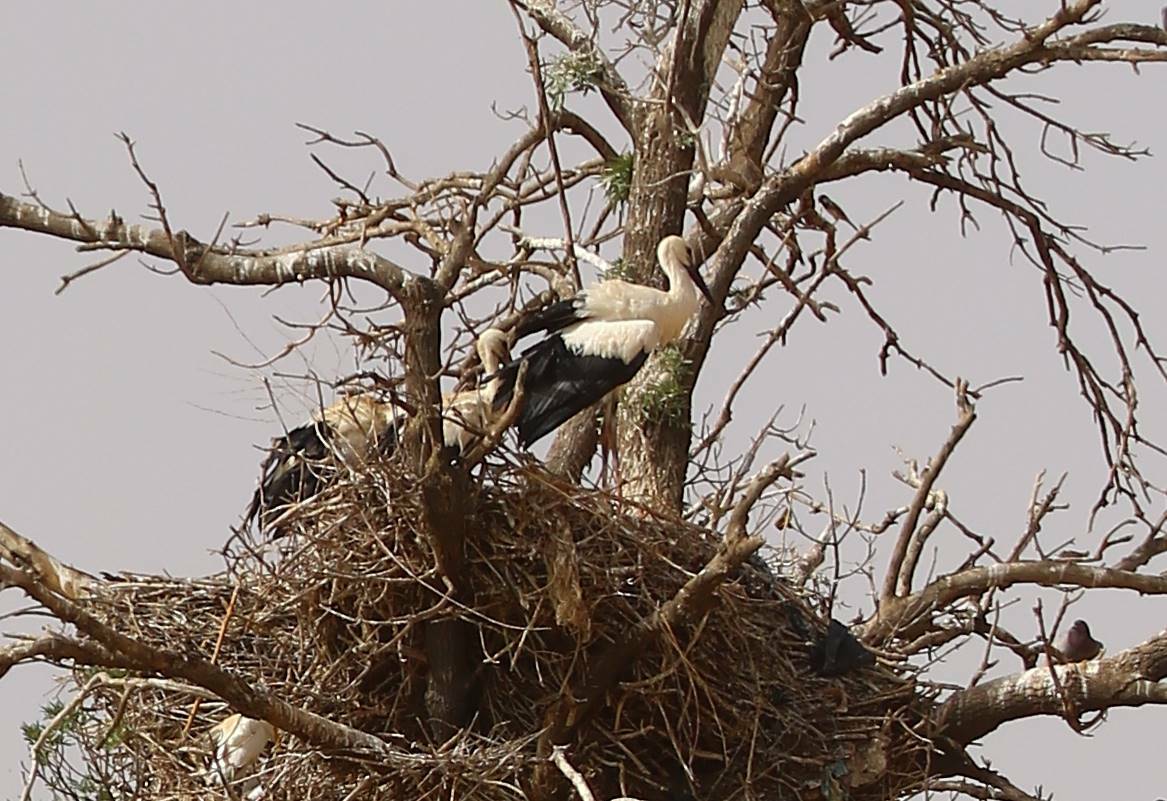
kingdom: Animalia
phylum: Chordata
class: Aves
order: Ciconiiformes
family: Ciconiidae
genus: Ciconia
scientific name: Ciconia ciconia
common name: White stork
